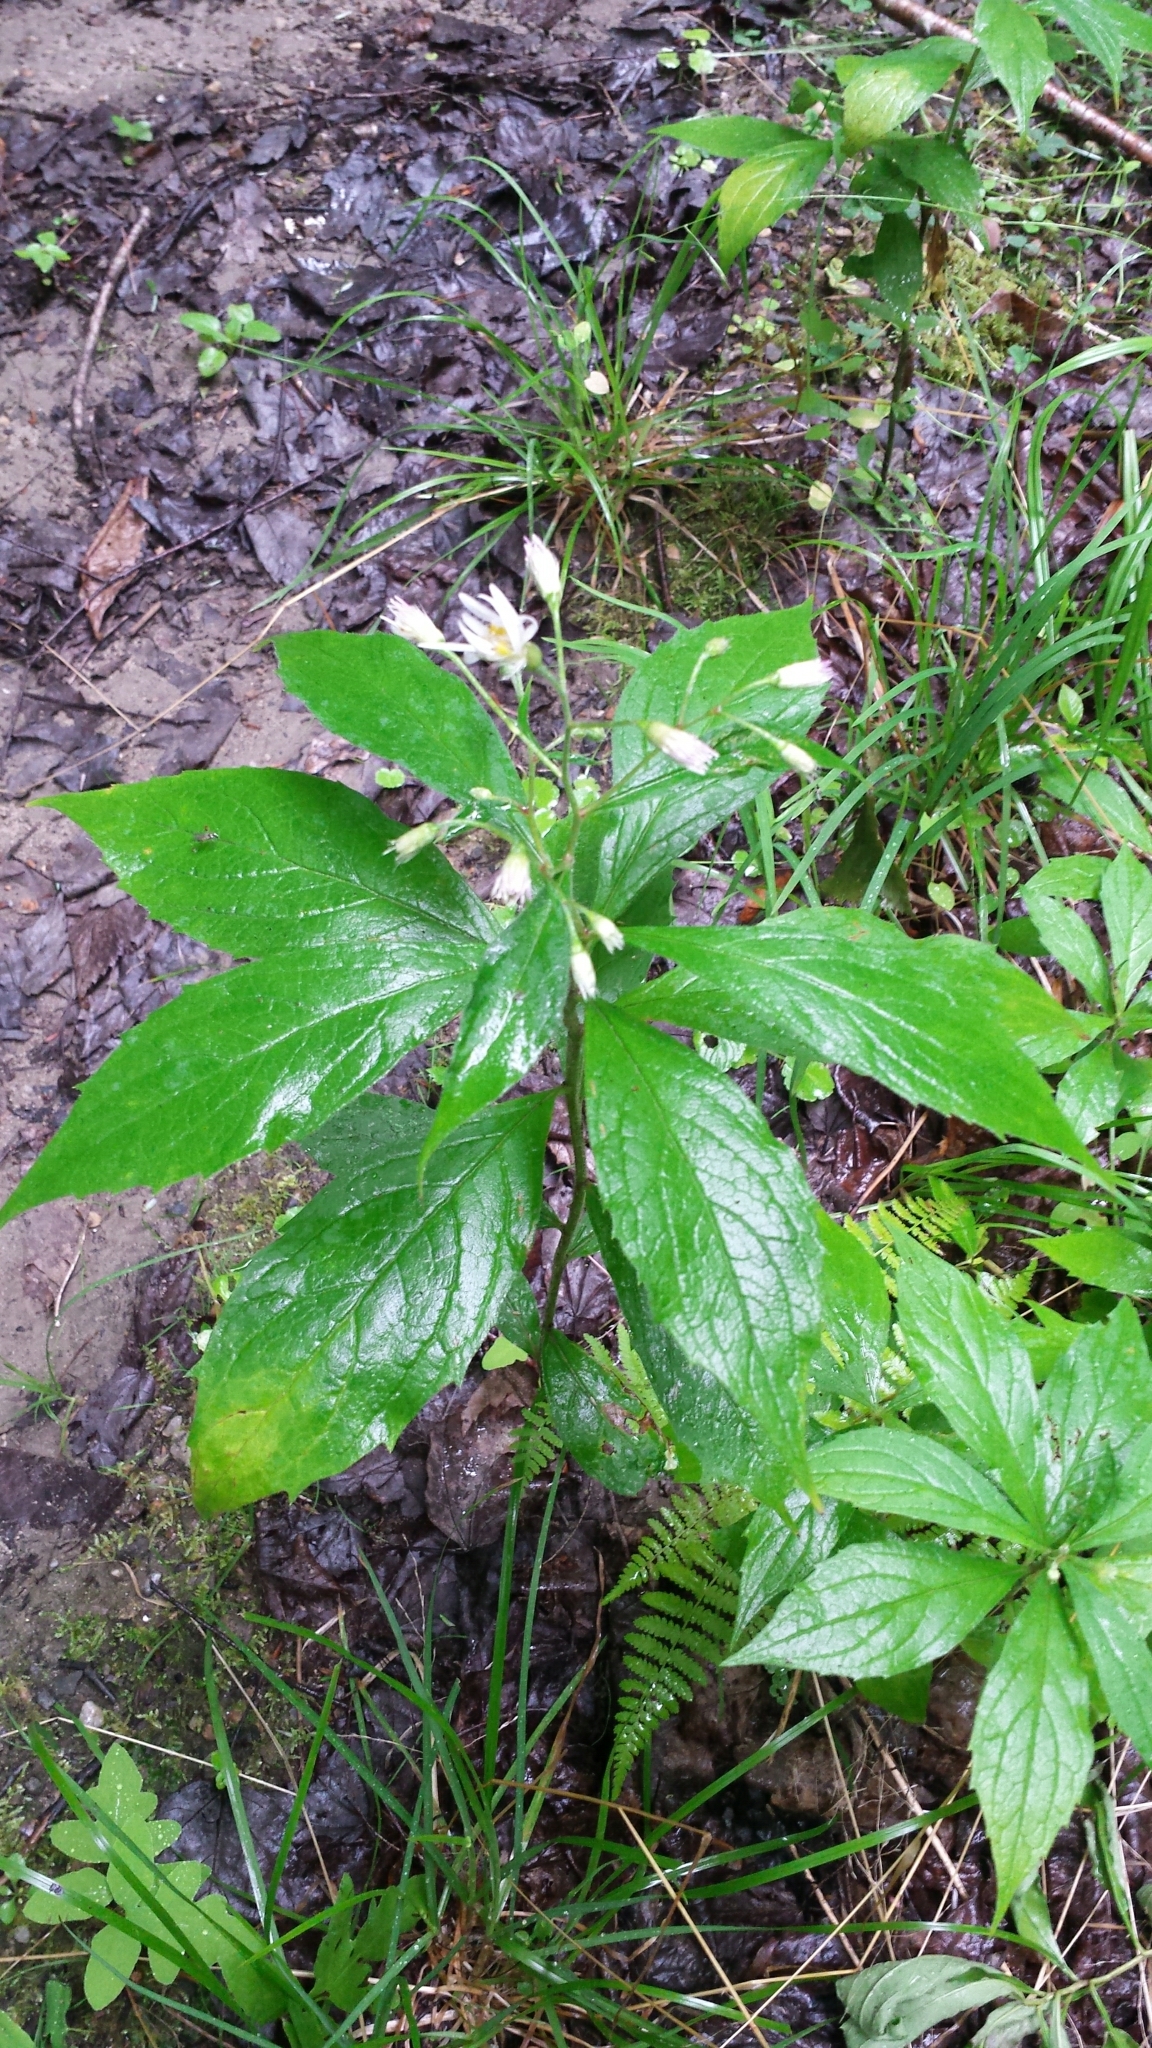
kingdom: Plantae
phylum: Tracheophyta
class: Magnoliopsida
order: Asterales
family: Asteraceae
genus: Oclemena
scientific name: Oclemena acuminata
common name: Mountain aster
